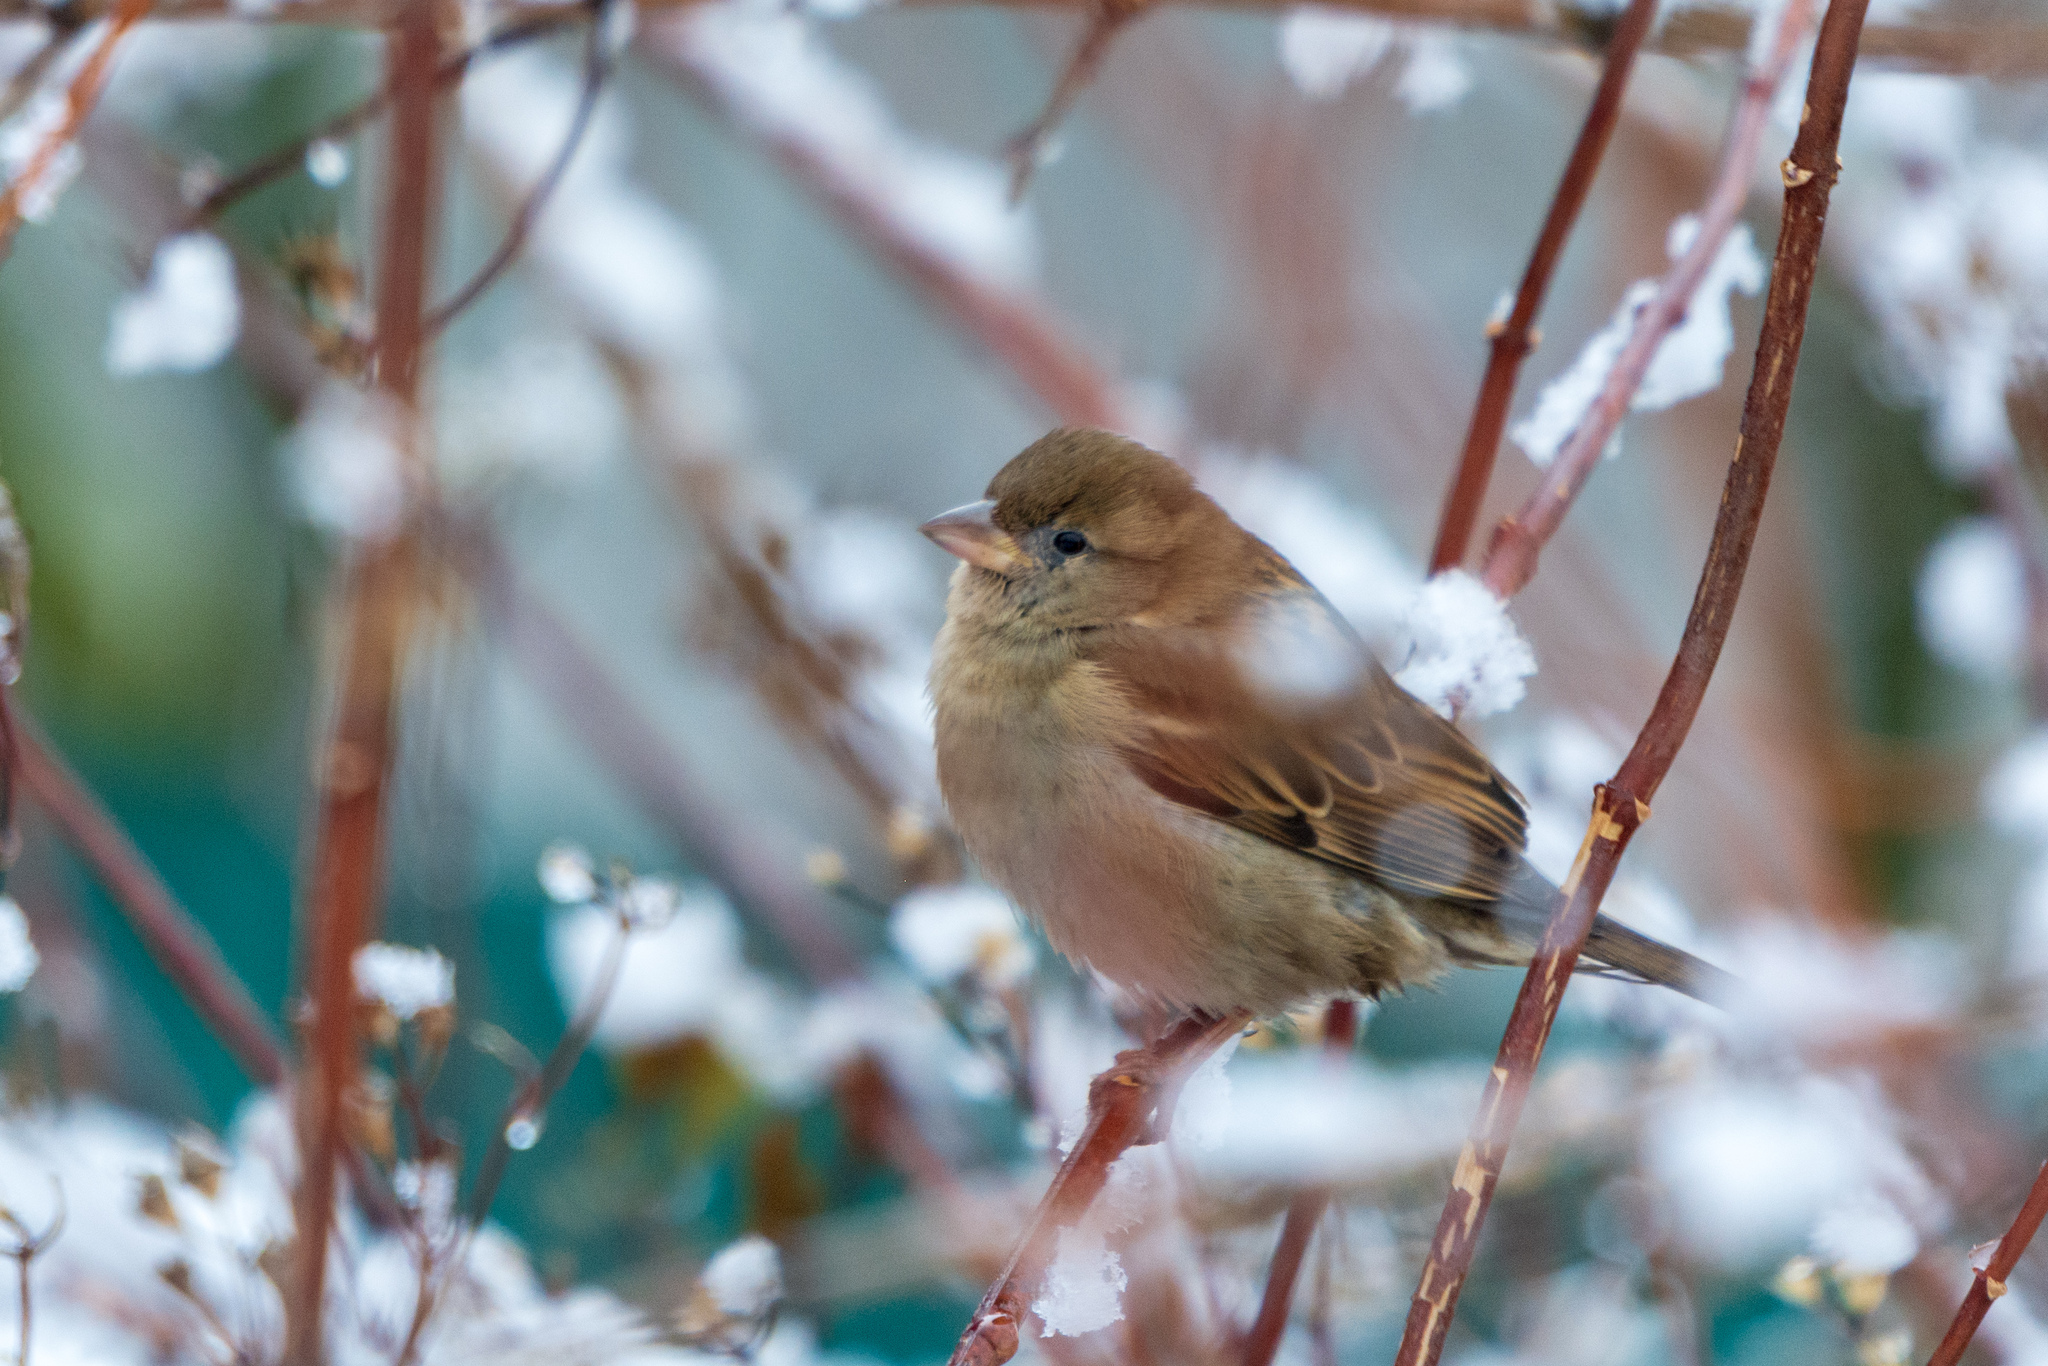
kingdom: Animalia
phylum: Chordata
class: Aves
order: Passeriformes
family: Passeridae
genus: Passer
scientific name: Passer domesticus
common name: House sparrow
